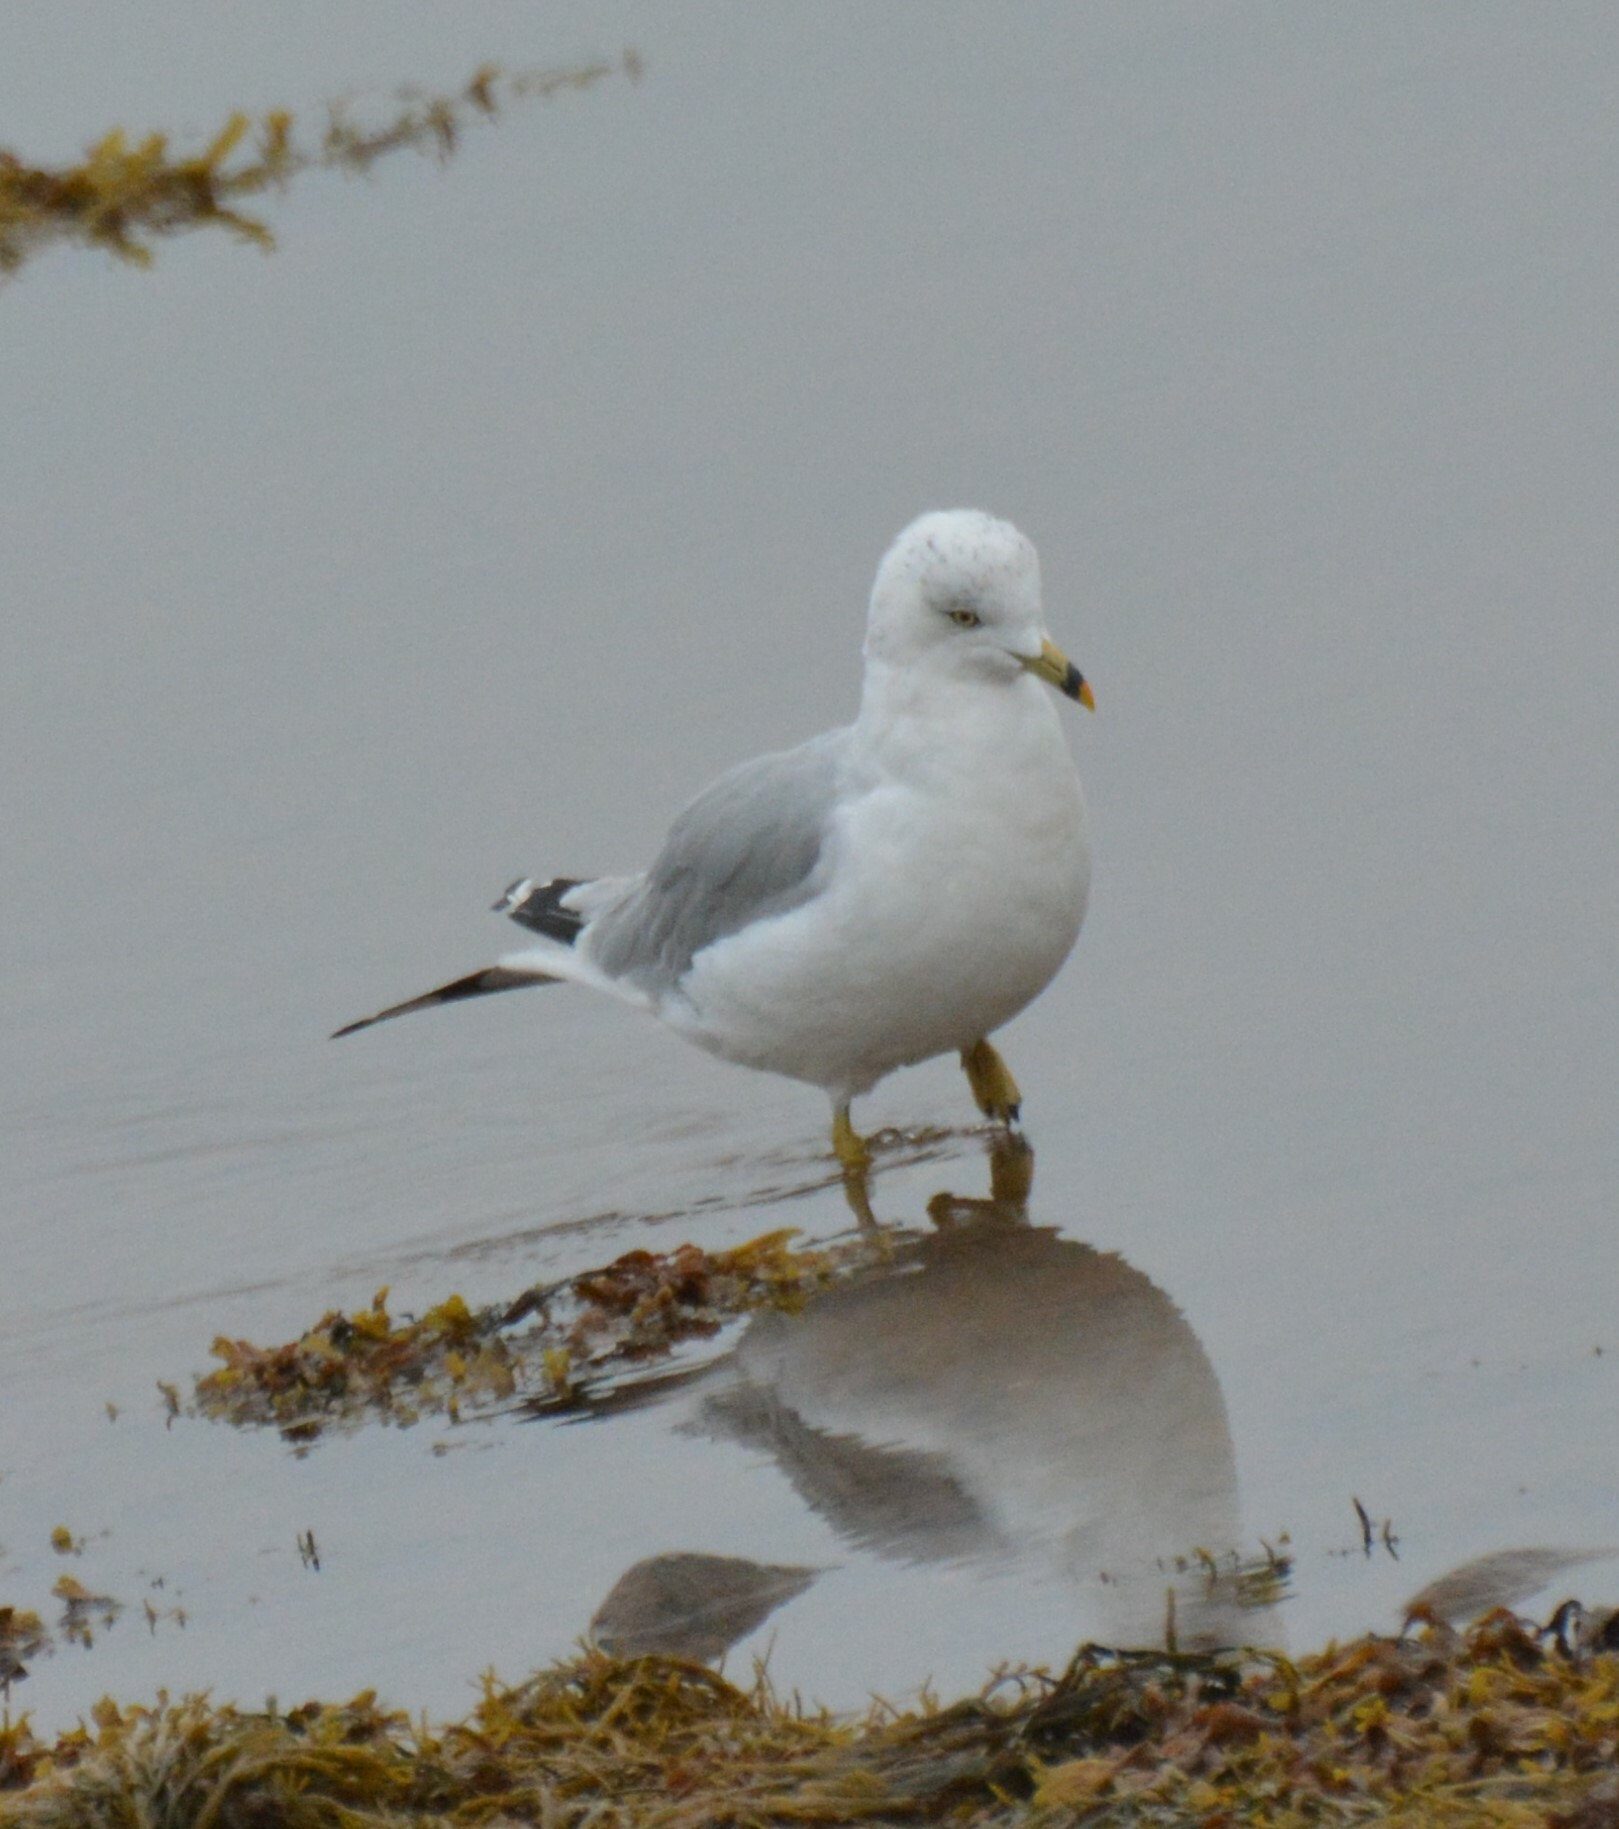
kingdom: Animalia
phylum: Chordata
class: Aves
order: Charadriiformes
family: Laridae
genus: Larus
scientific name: Larus delawarensis
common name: Ring-billed gull
